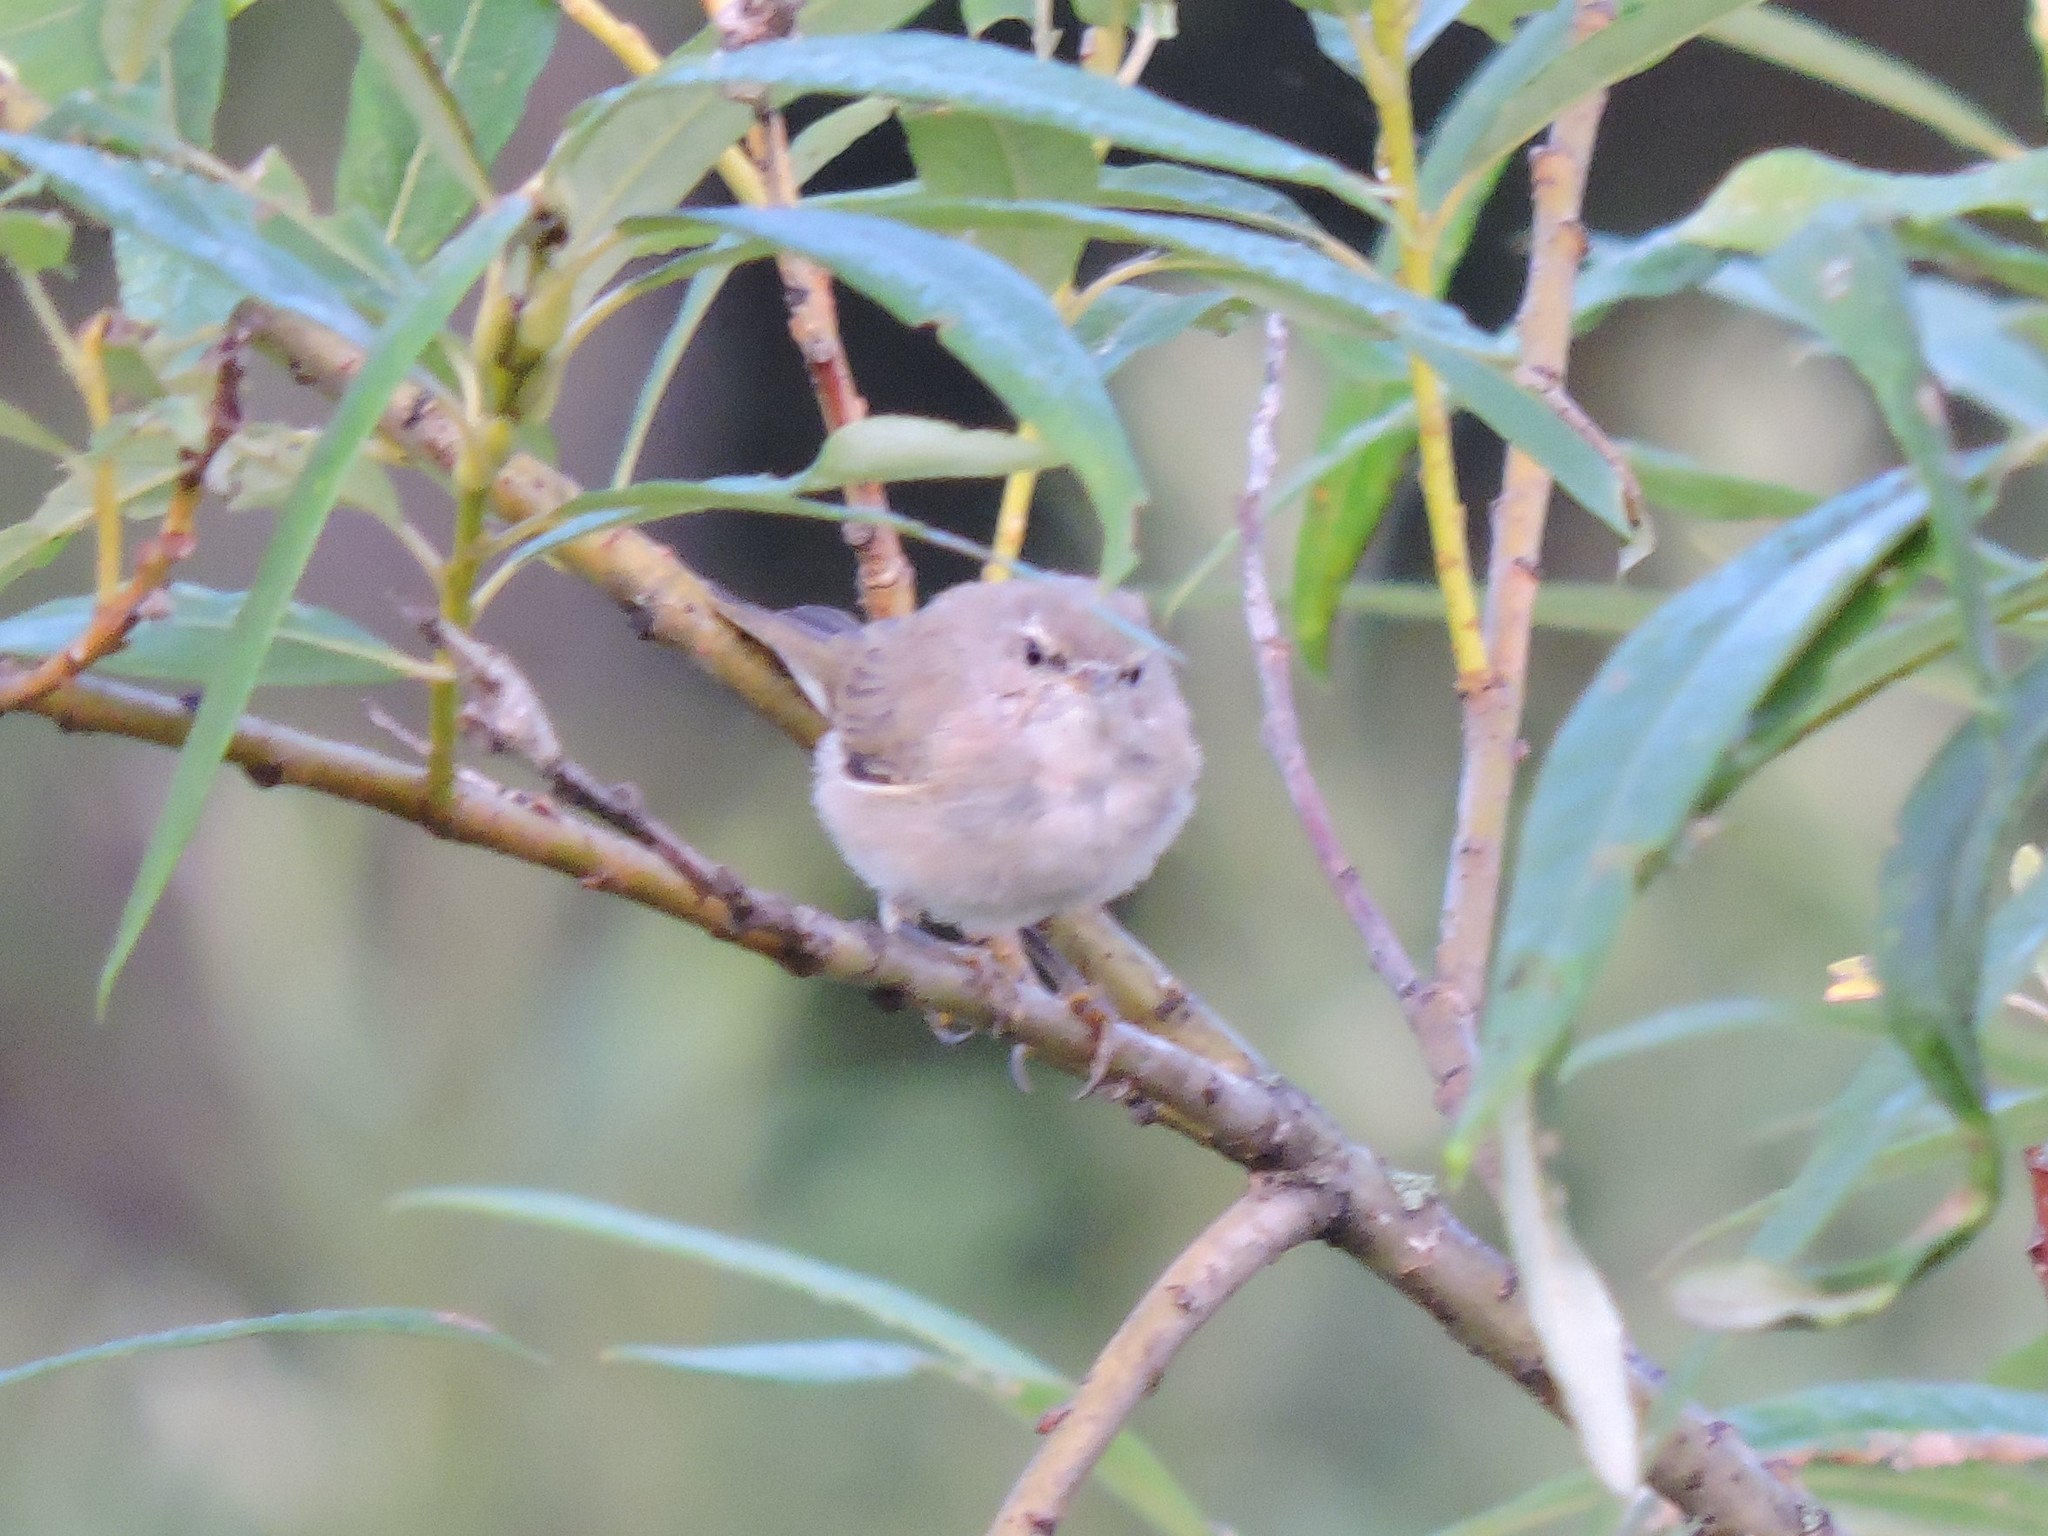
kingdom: Animalia
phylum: Chordata
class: Aves
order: Passeriformes
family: Phylloscopidae
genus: Phylloscopus
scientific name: Phylloscopus collybita
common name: Common chiffchaff
